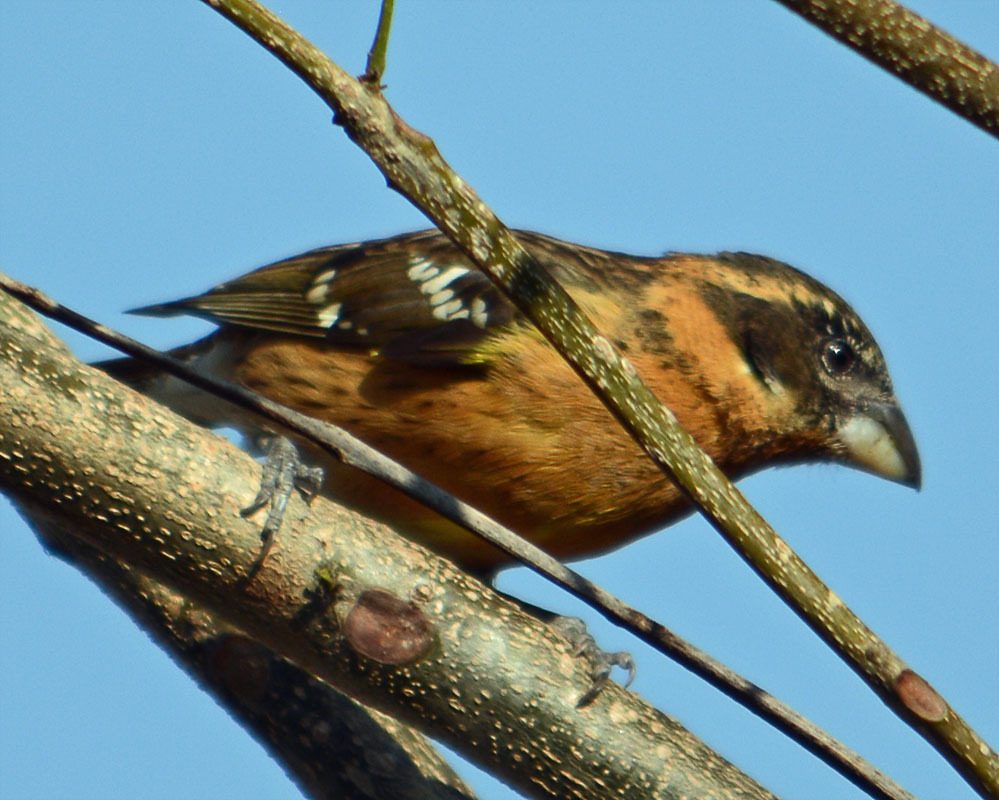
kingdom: Animalia
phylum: Chordata
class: Aves
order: Passeriformes
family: Cardinalidae
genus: Pheucticus
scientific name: Pheucticus melanocephalus
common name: Black-headed grosbeak
